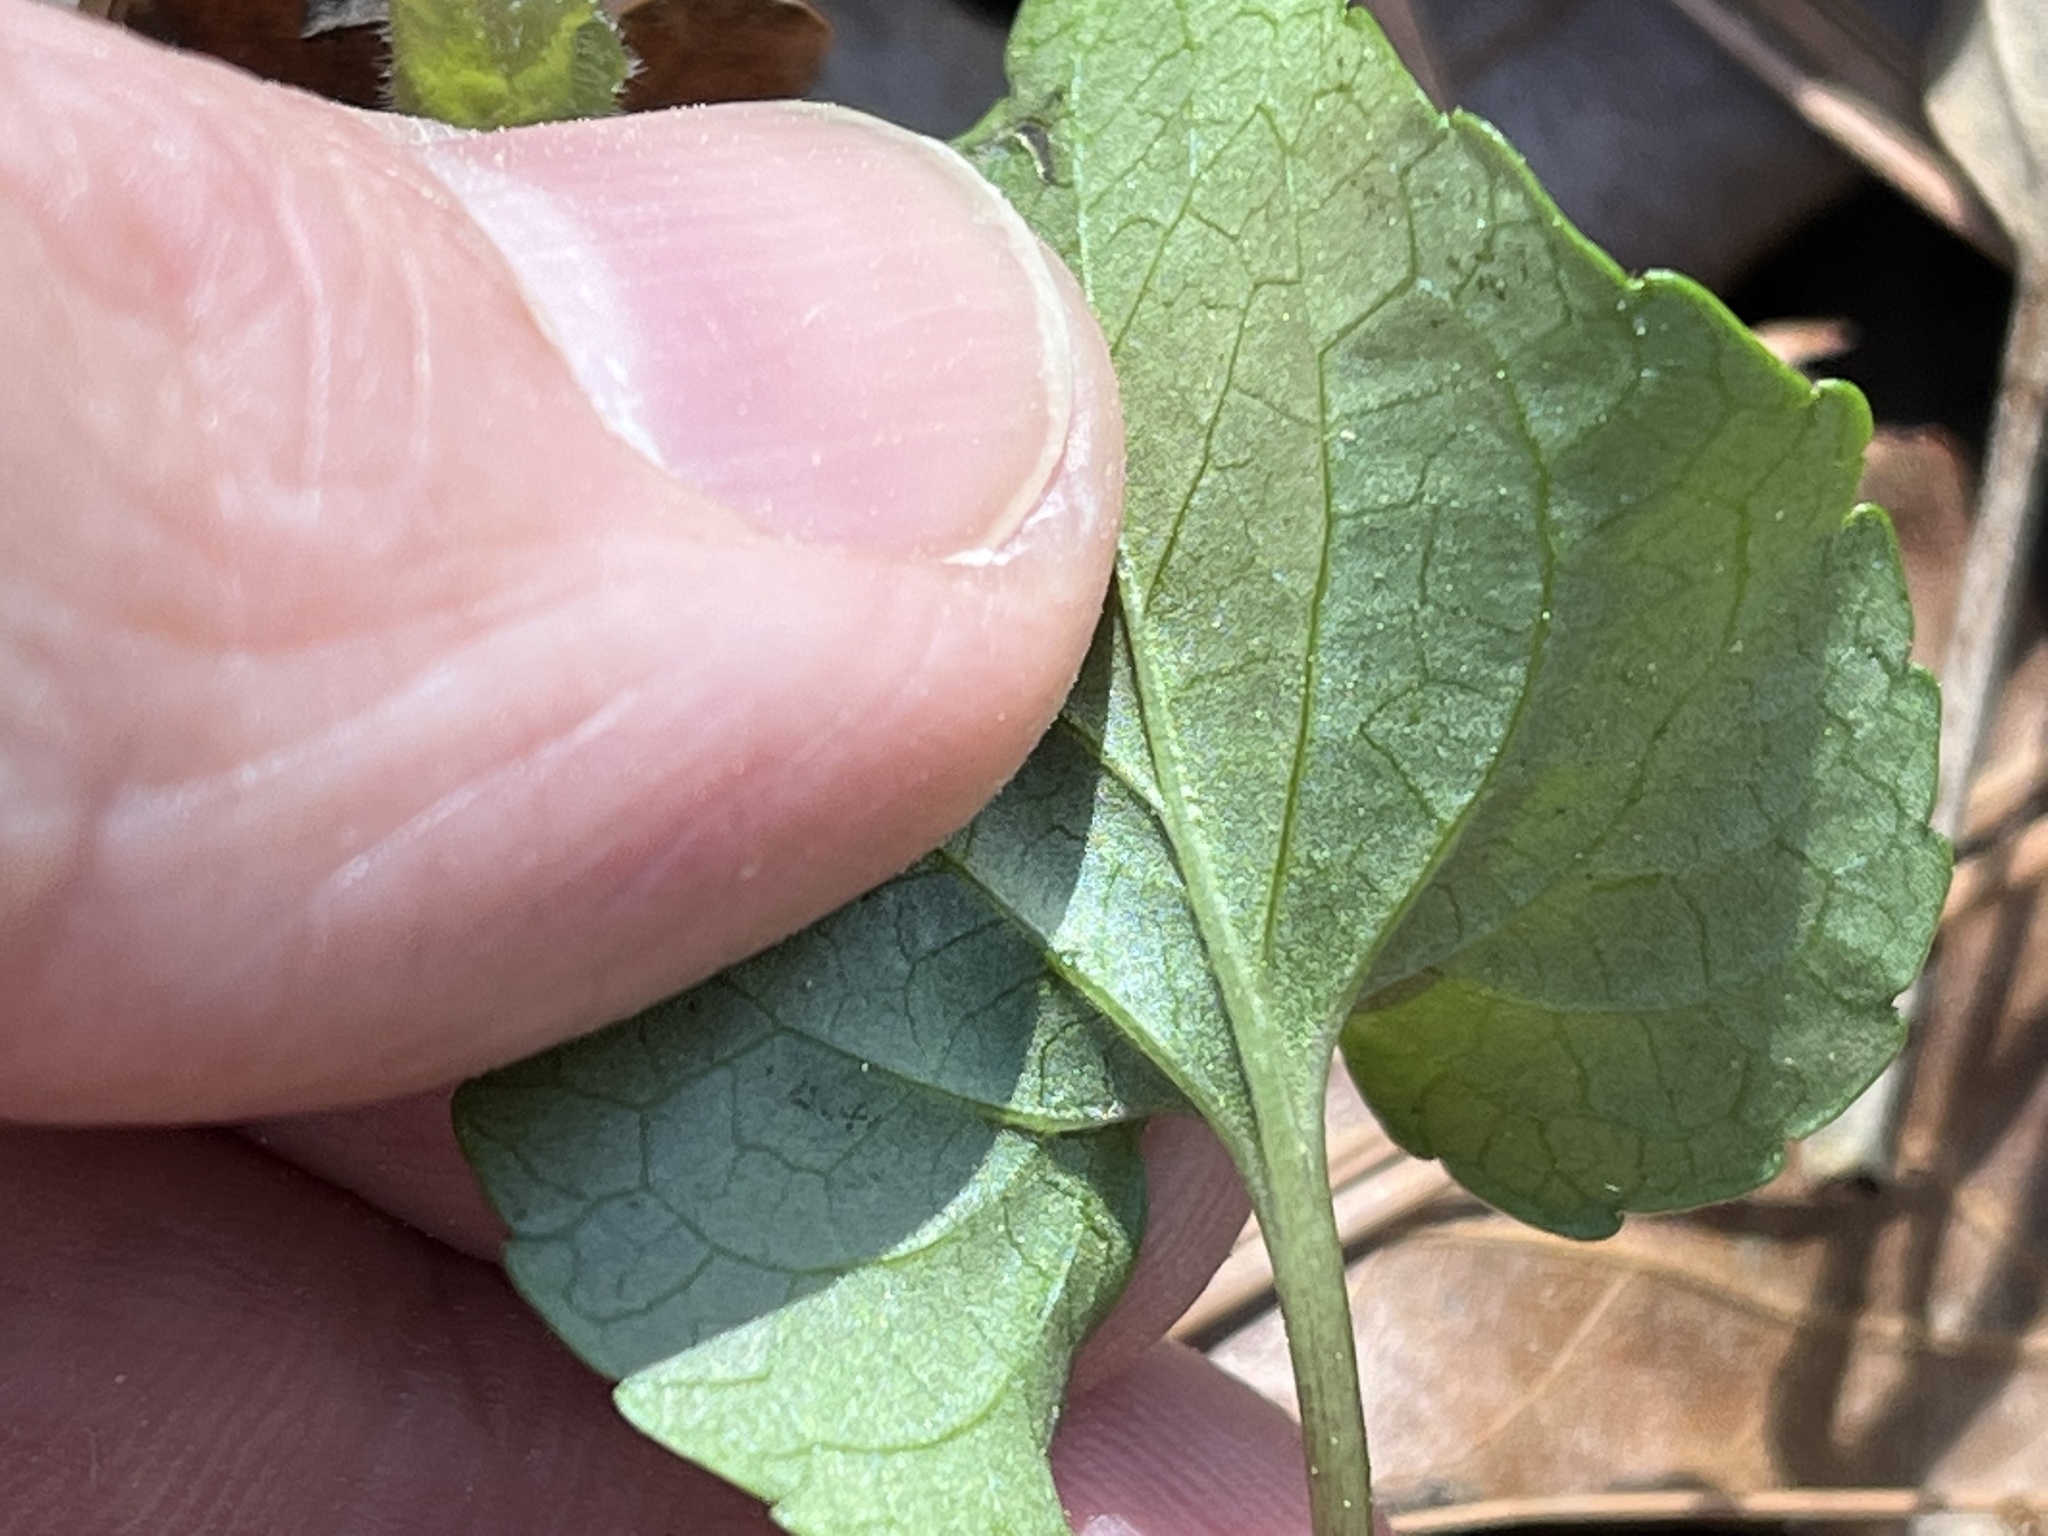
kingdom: Plantae
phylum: Tracheophyta
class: Magnoliopsida
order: Malpighiales
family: Violaceae
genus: Viola
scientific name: Viola palmata
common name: Early blue violet
